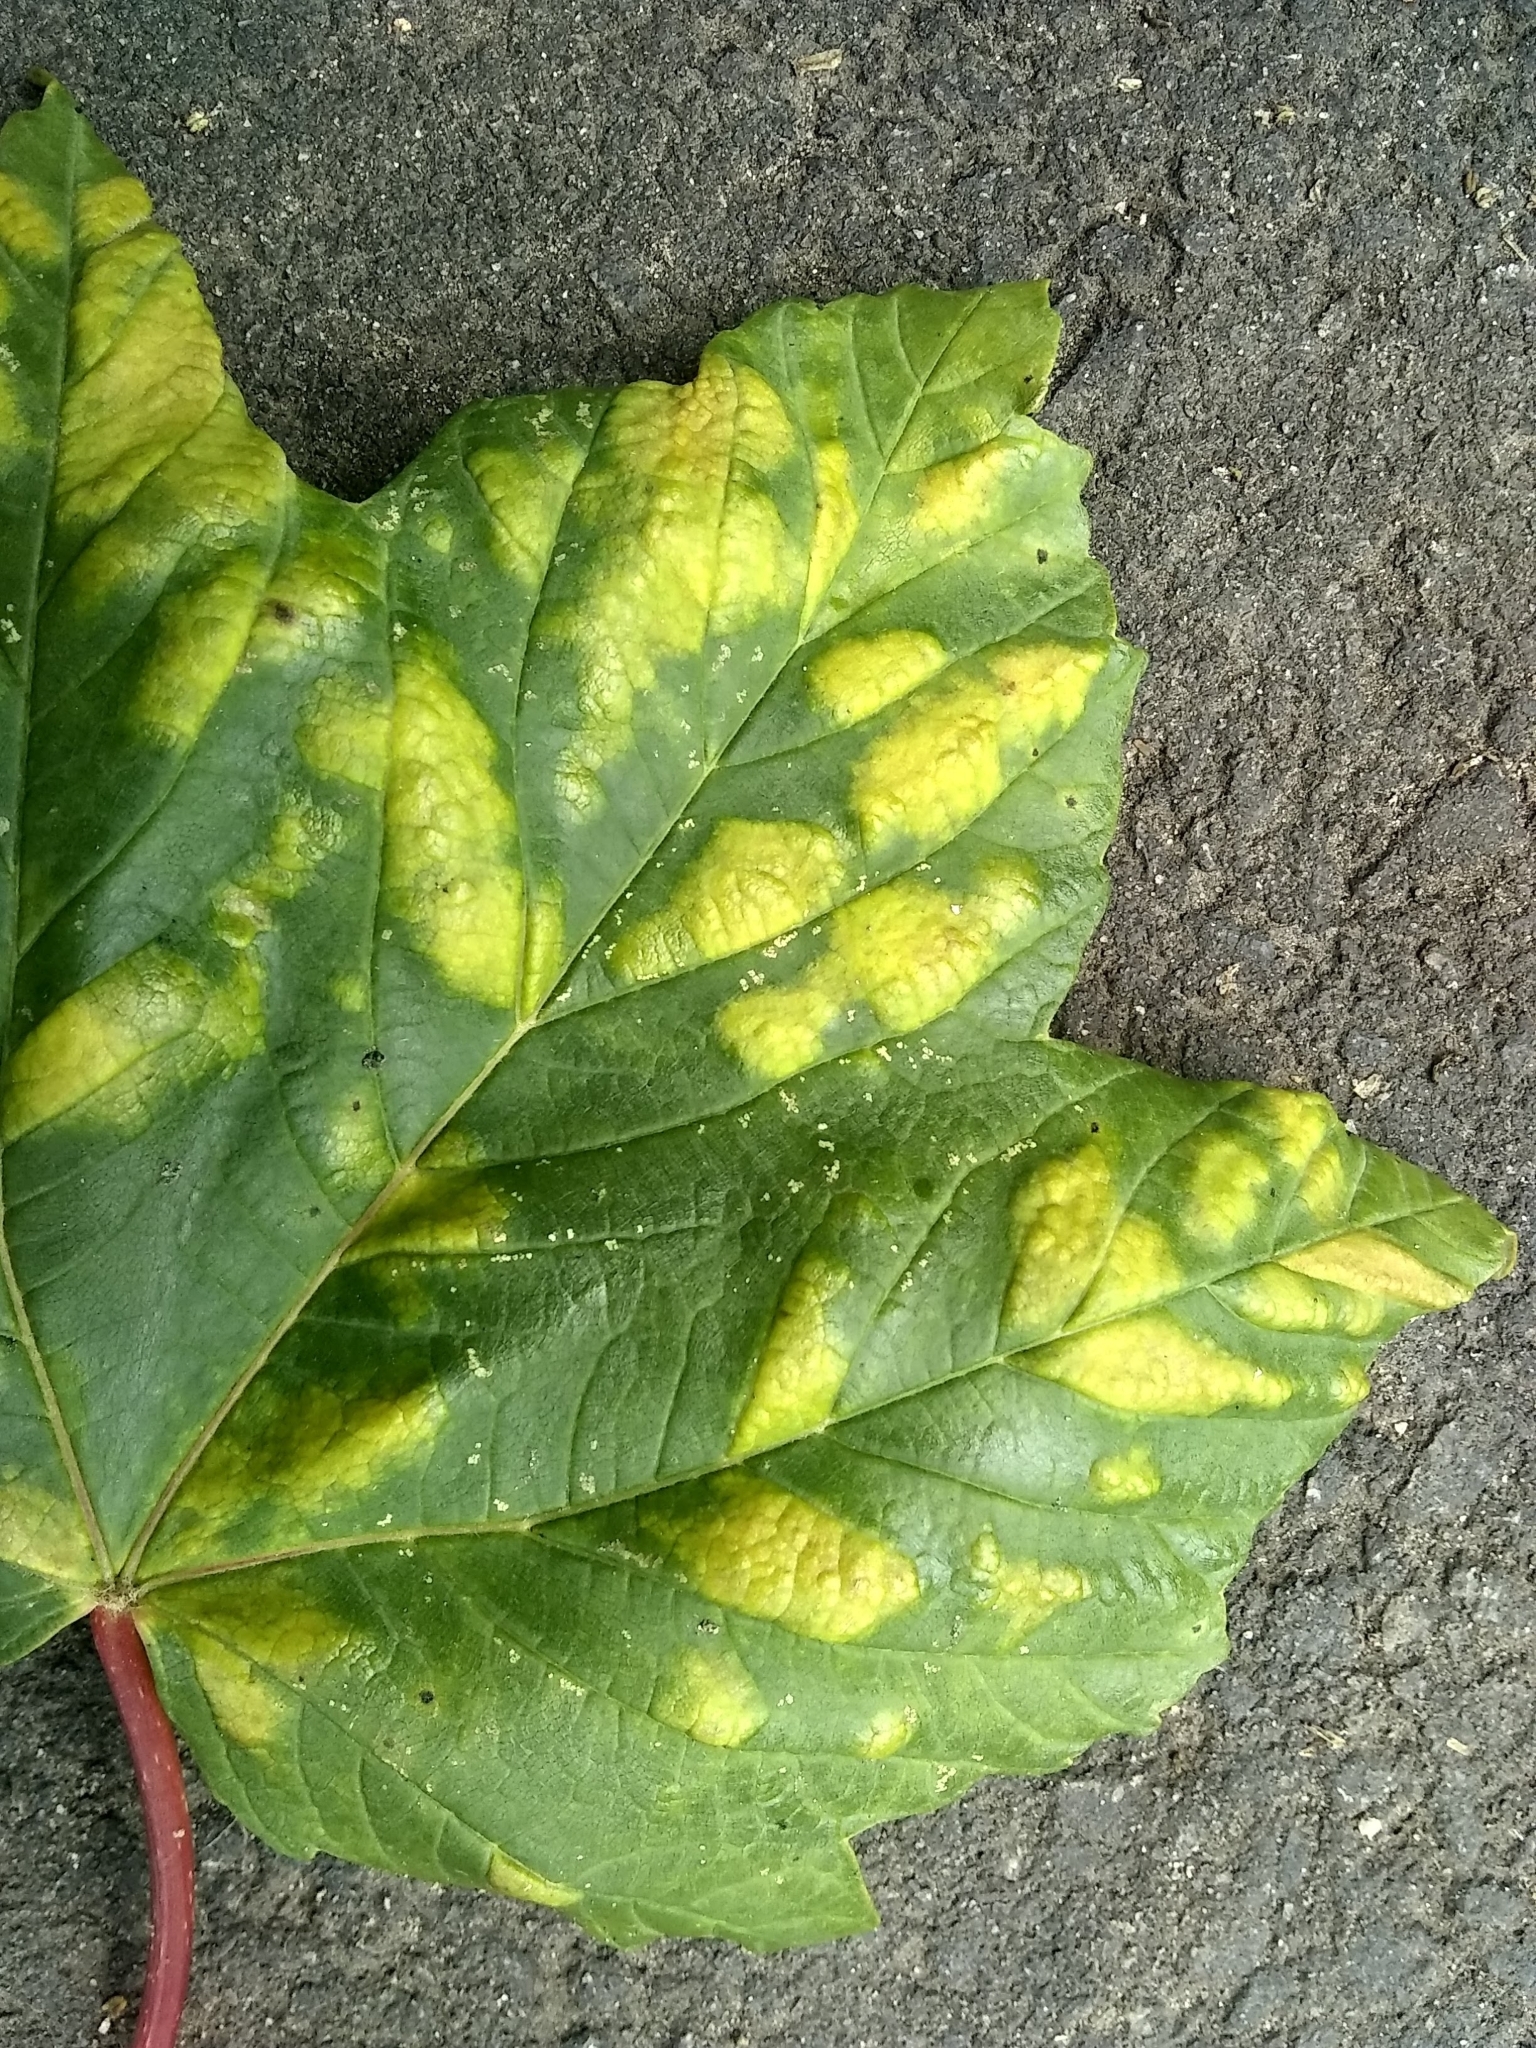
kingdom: Animalia
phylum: Arthropoda
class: Arachnida
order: Trombidiformes
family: Eriophyidae
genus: Aceria
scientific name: Aceria pseudoplatani
